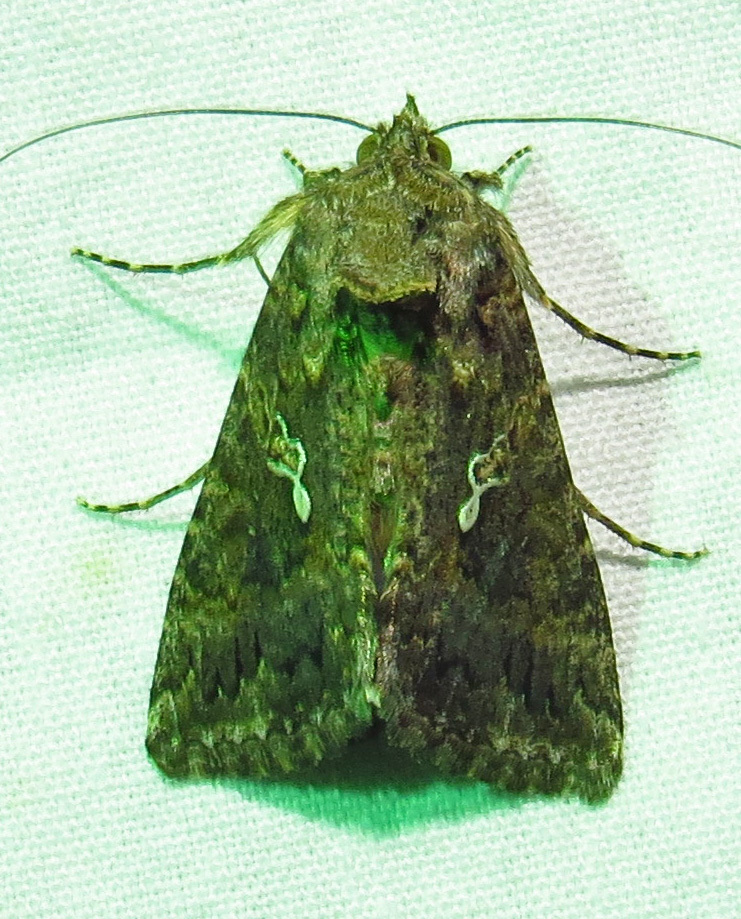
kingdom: Animalia
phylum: Arthropoda
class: Insecta
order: Lepidoptera
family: Noctuidae
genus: Trichoplusia
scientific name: Trichoplusia ni
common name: Ni moth
